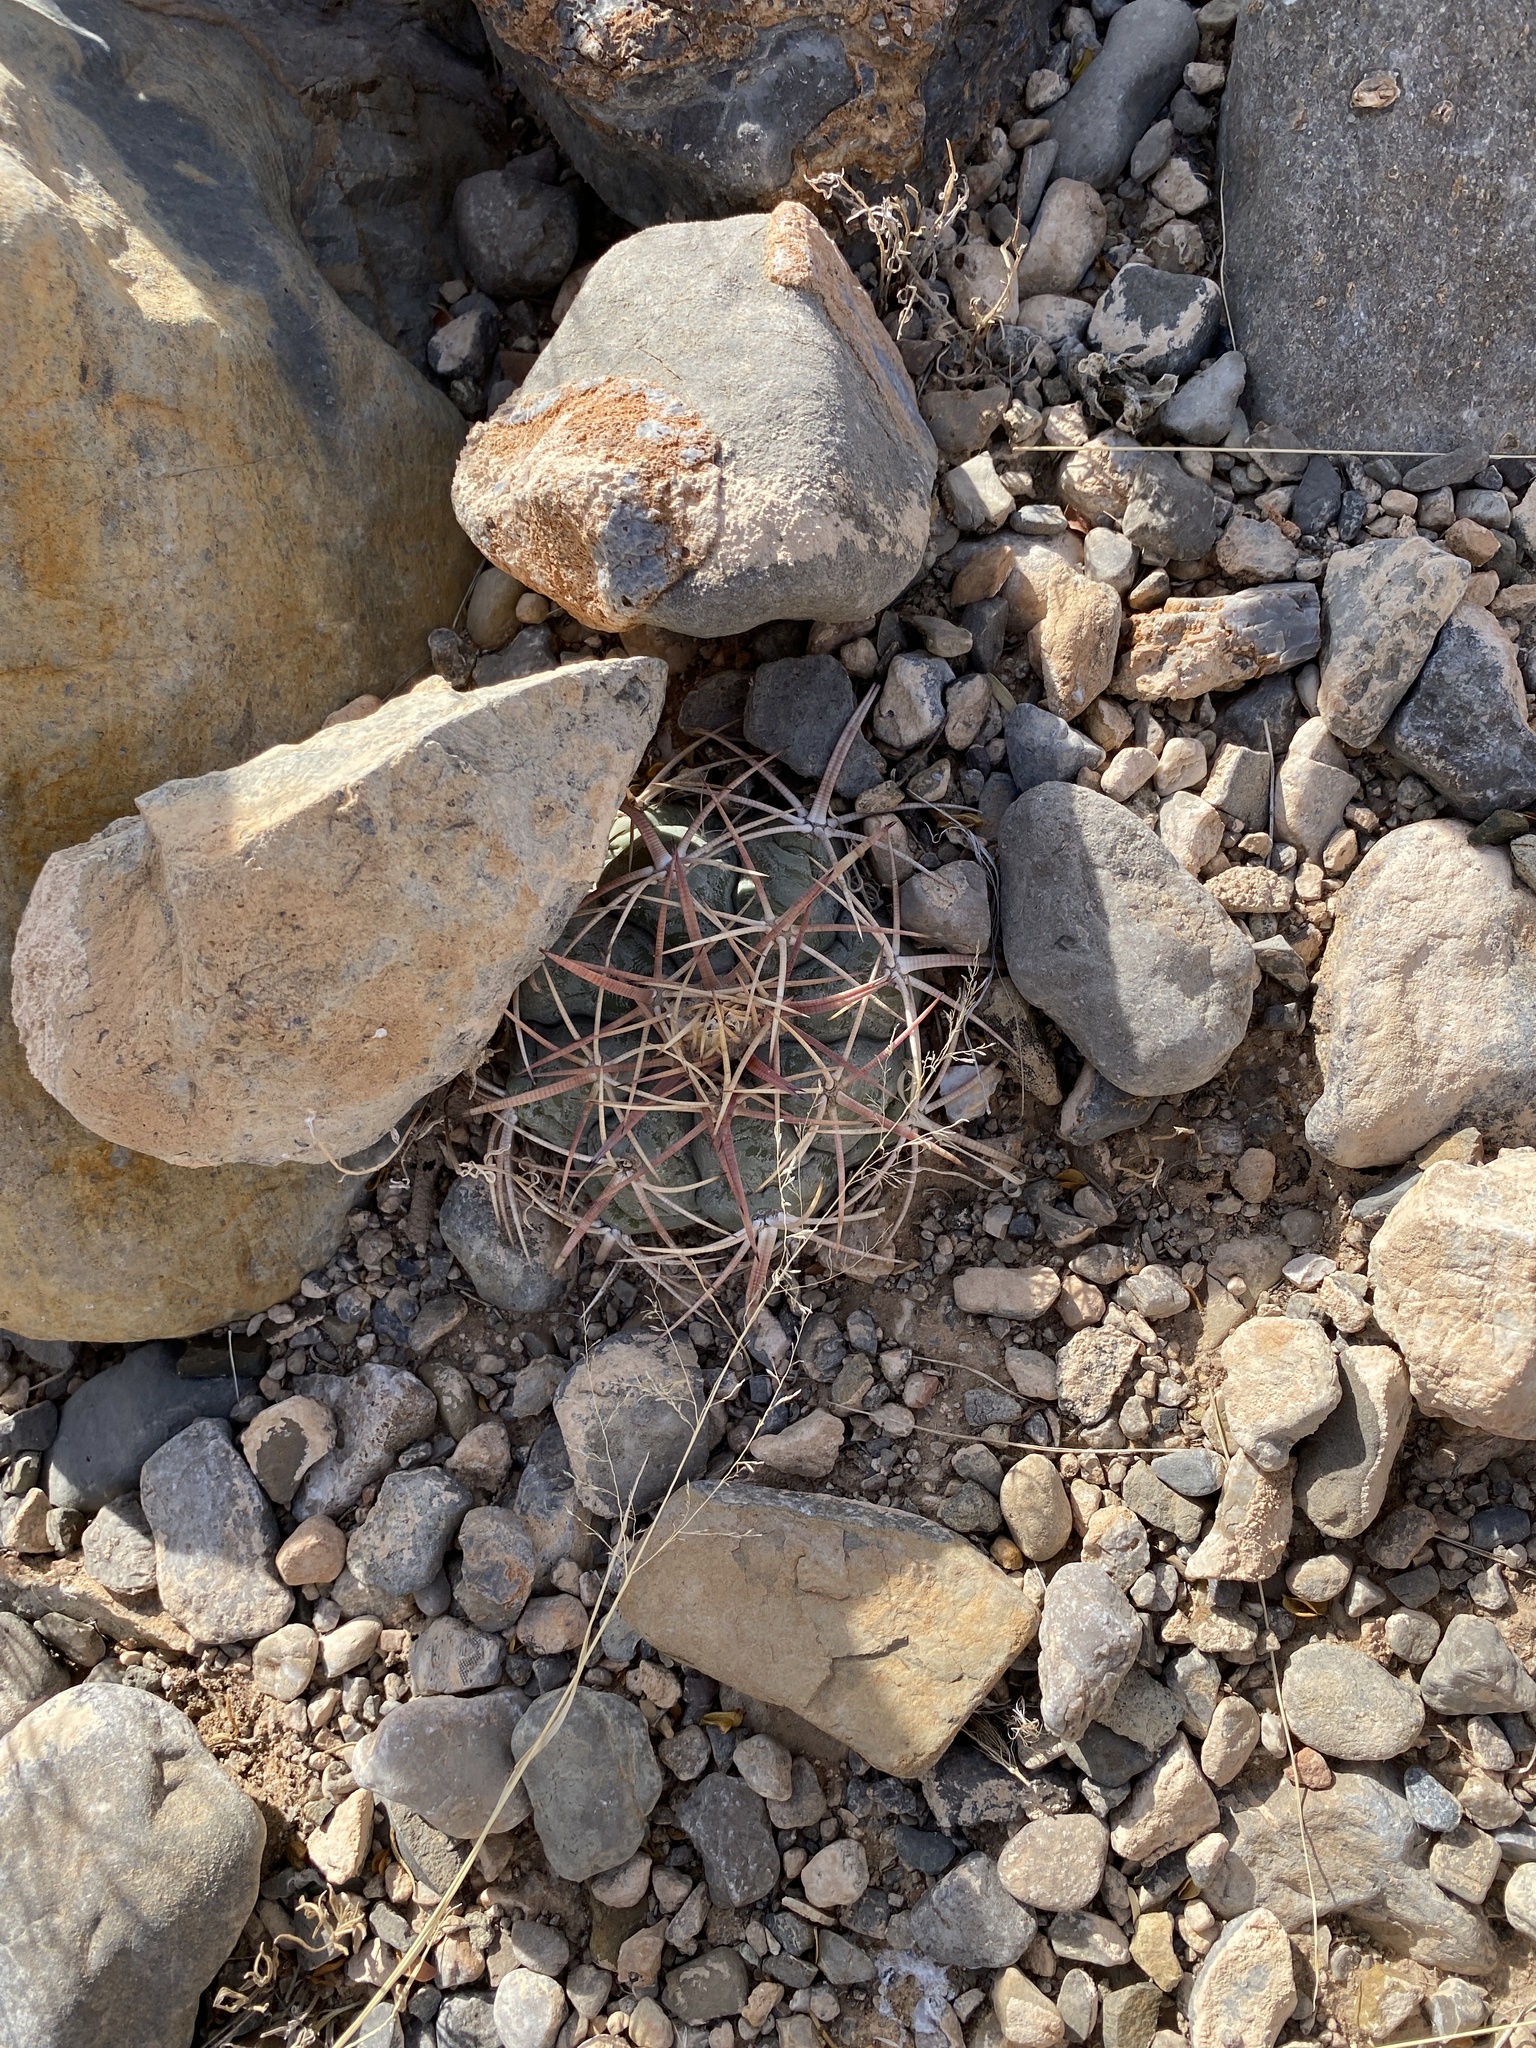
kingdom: Plantae
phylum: Tracheophyta
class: Magnoliopsida
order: Caryophyllales
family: Cactaceae
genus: Echinocactus
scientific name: Echinocactus horizonthalonius
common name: Devilshead
